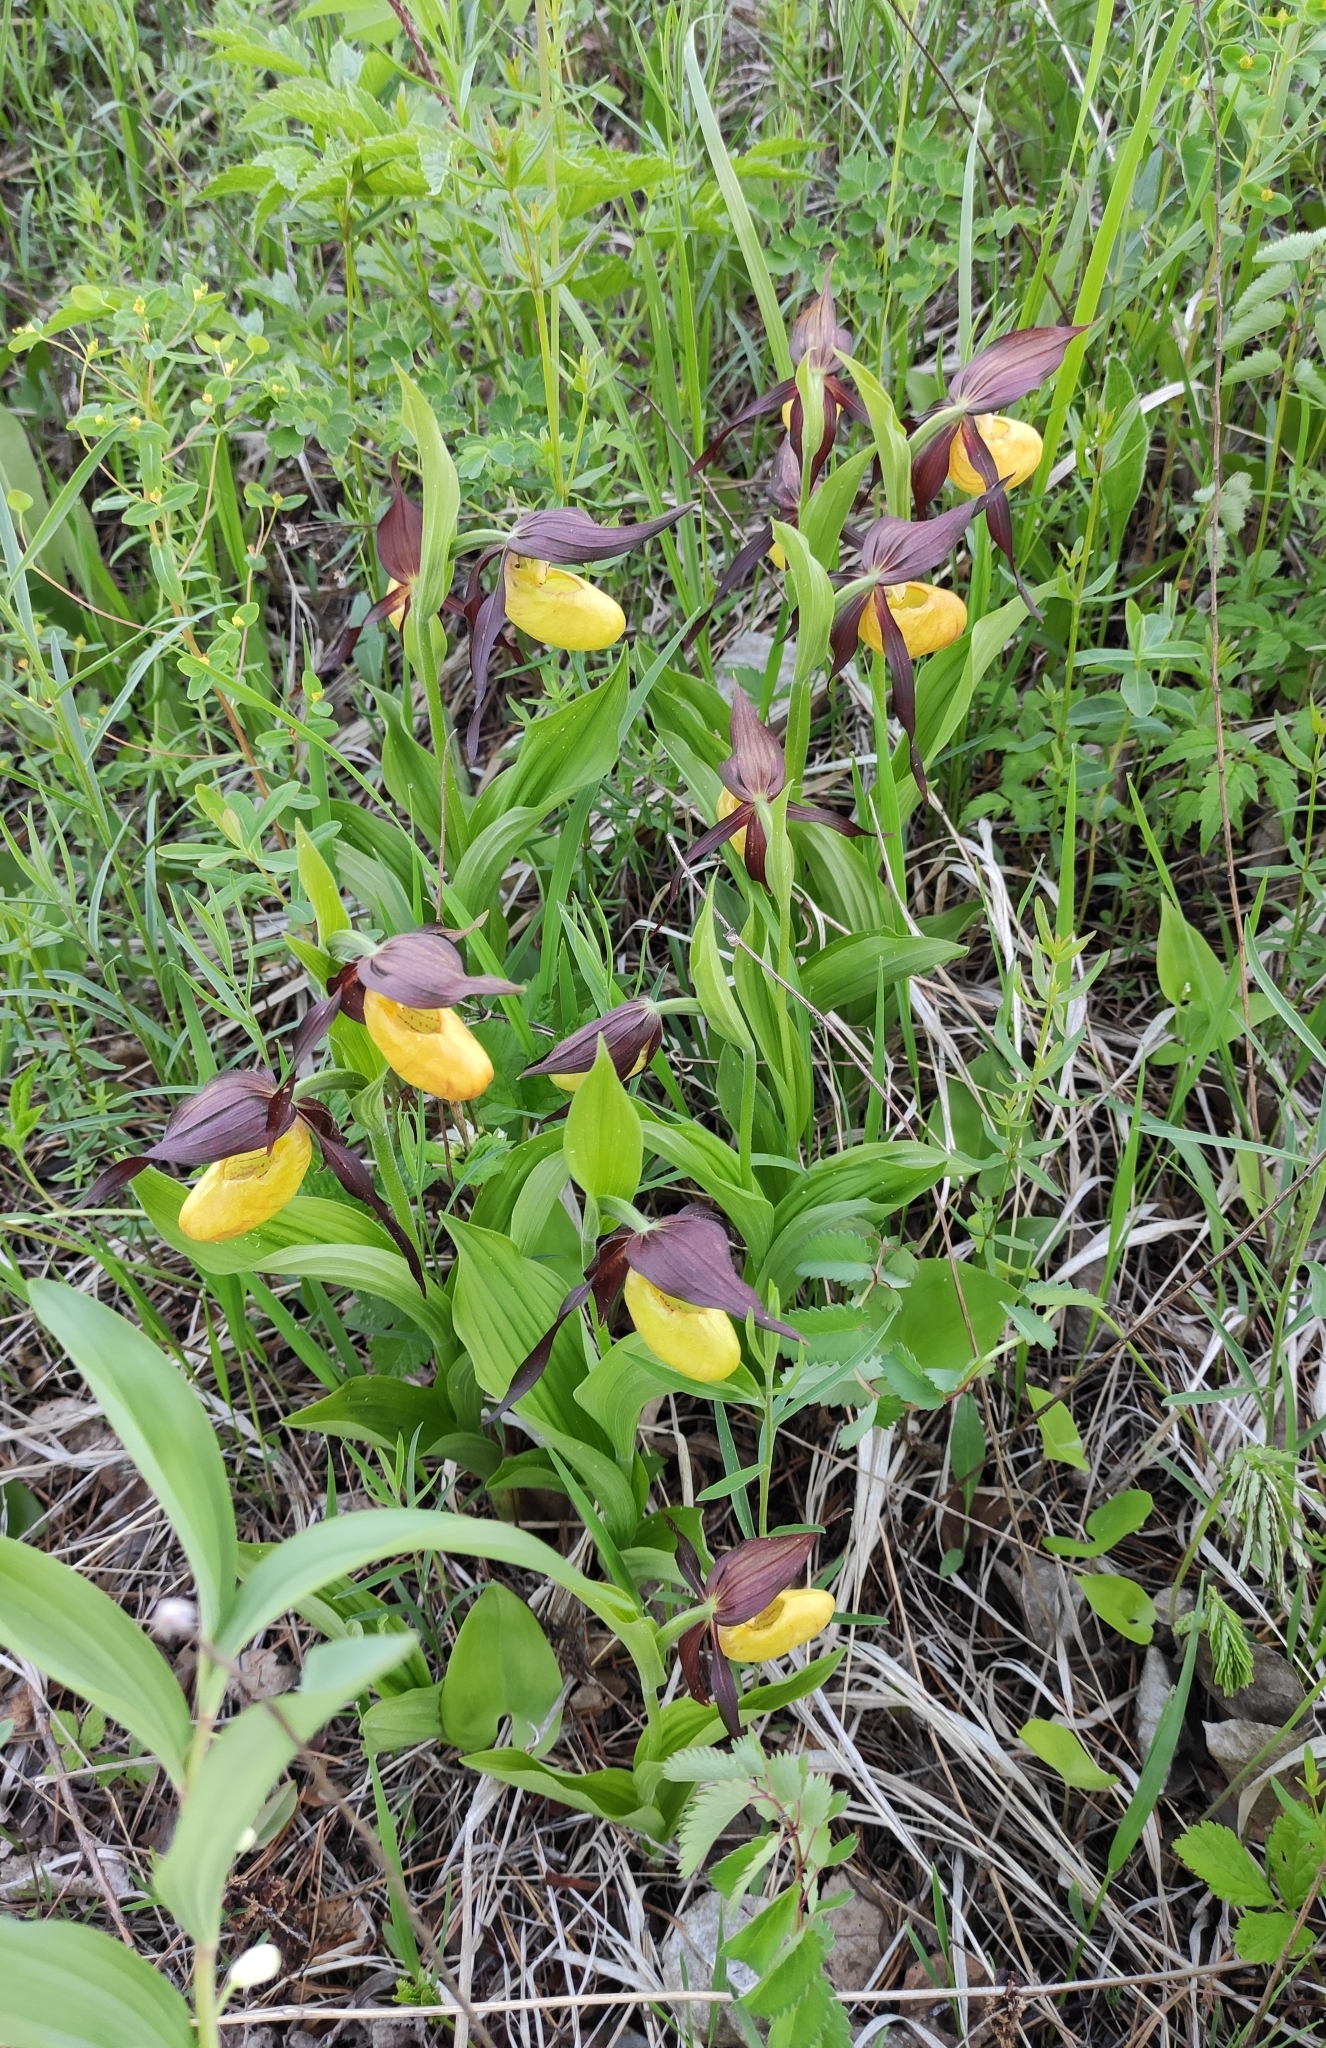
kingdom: Plantae
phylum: Tracheophyta
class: Liliopsida
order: Asparagales
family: Orchidaceae
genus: Cypripedium
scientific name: Cypripedium calceolus
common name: Lady's-slipper
